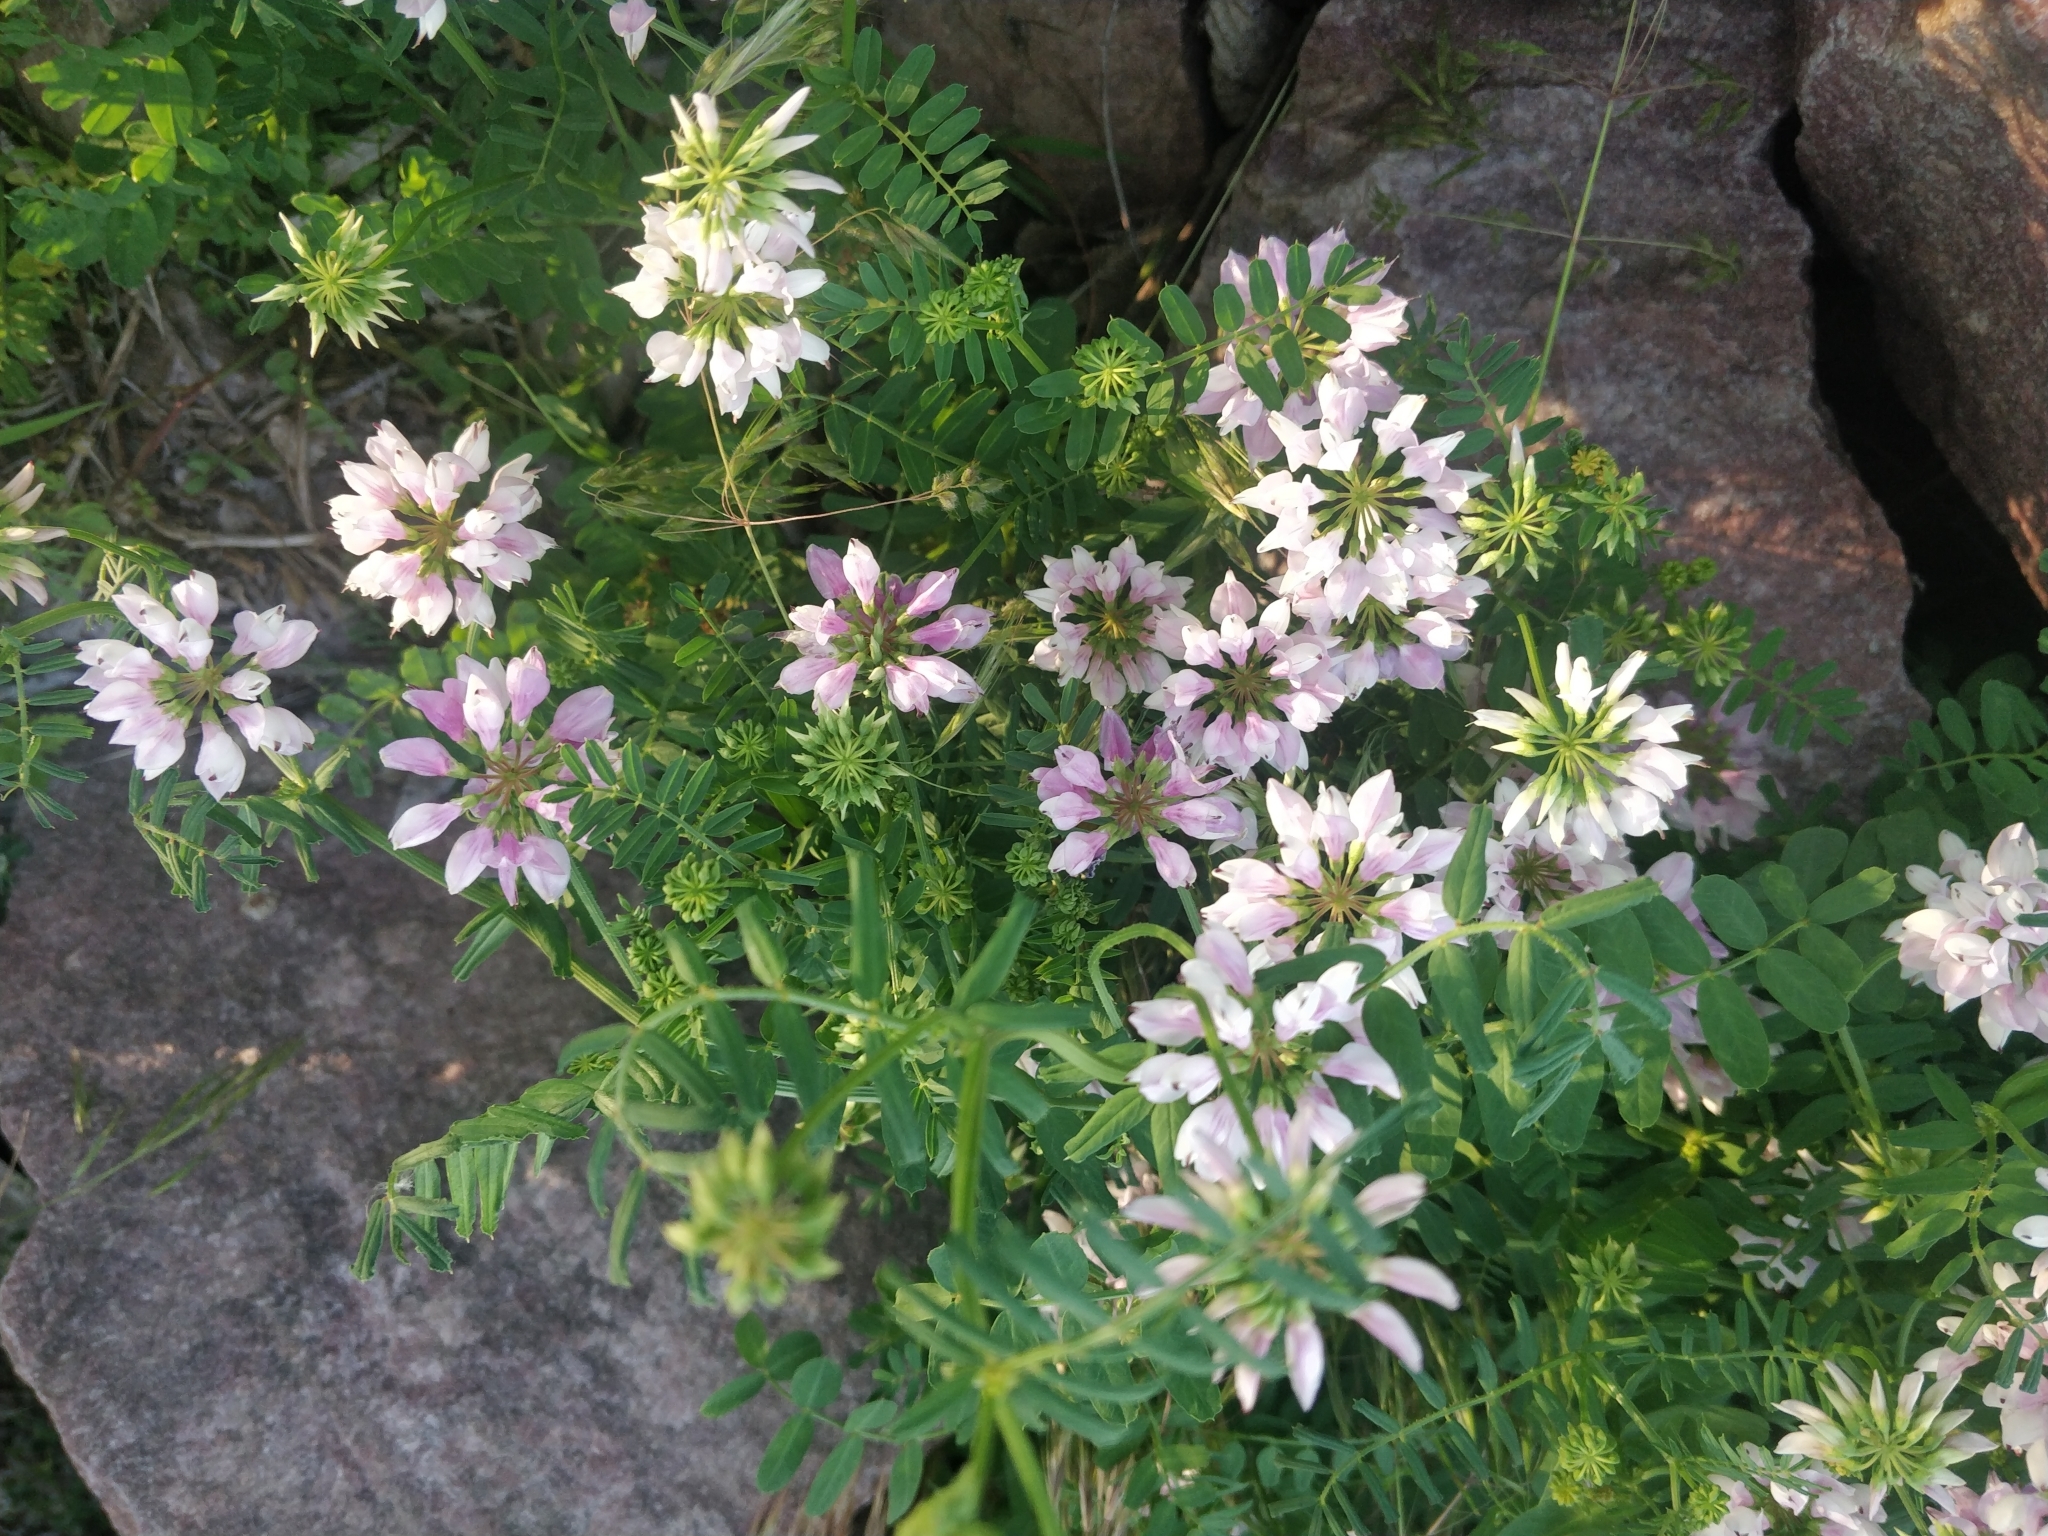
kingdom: Plantae
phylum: Tracheophyta
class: Magnoliopsida
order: Fabales
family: Fabaceae
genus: Coronilla
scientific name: Coronilla varia
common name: Crownvetch
